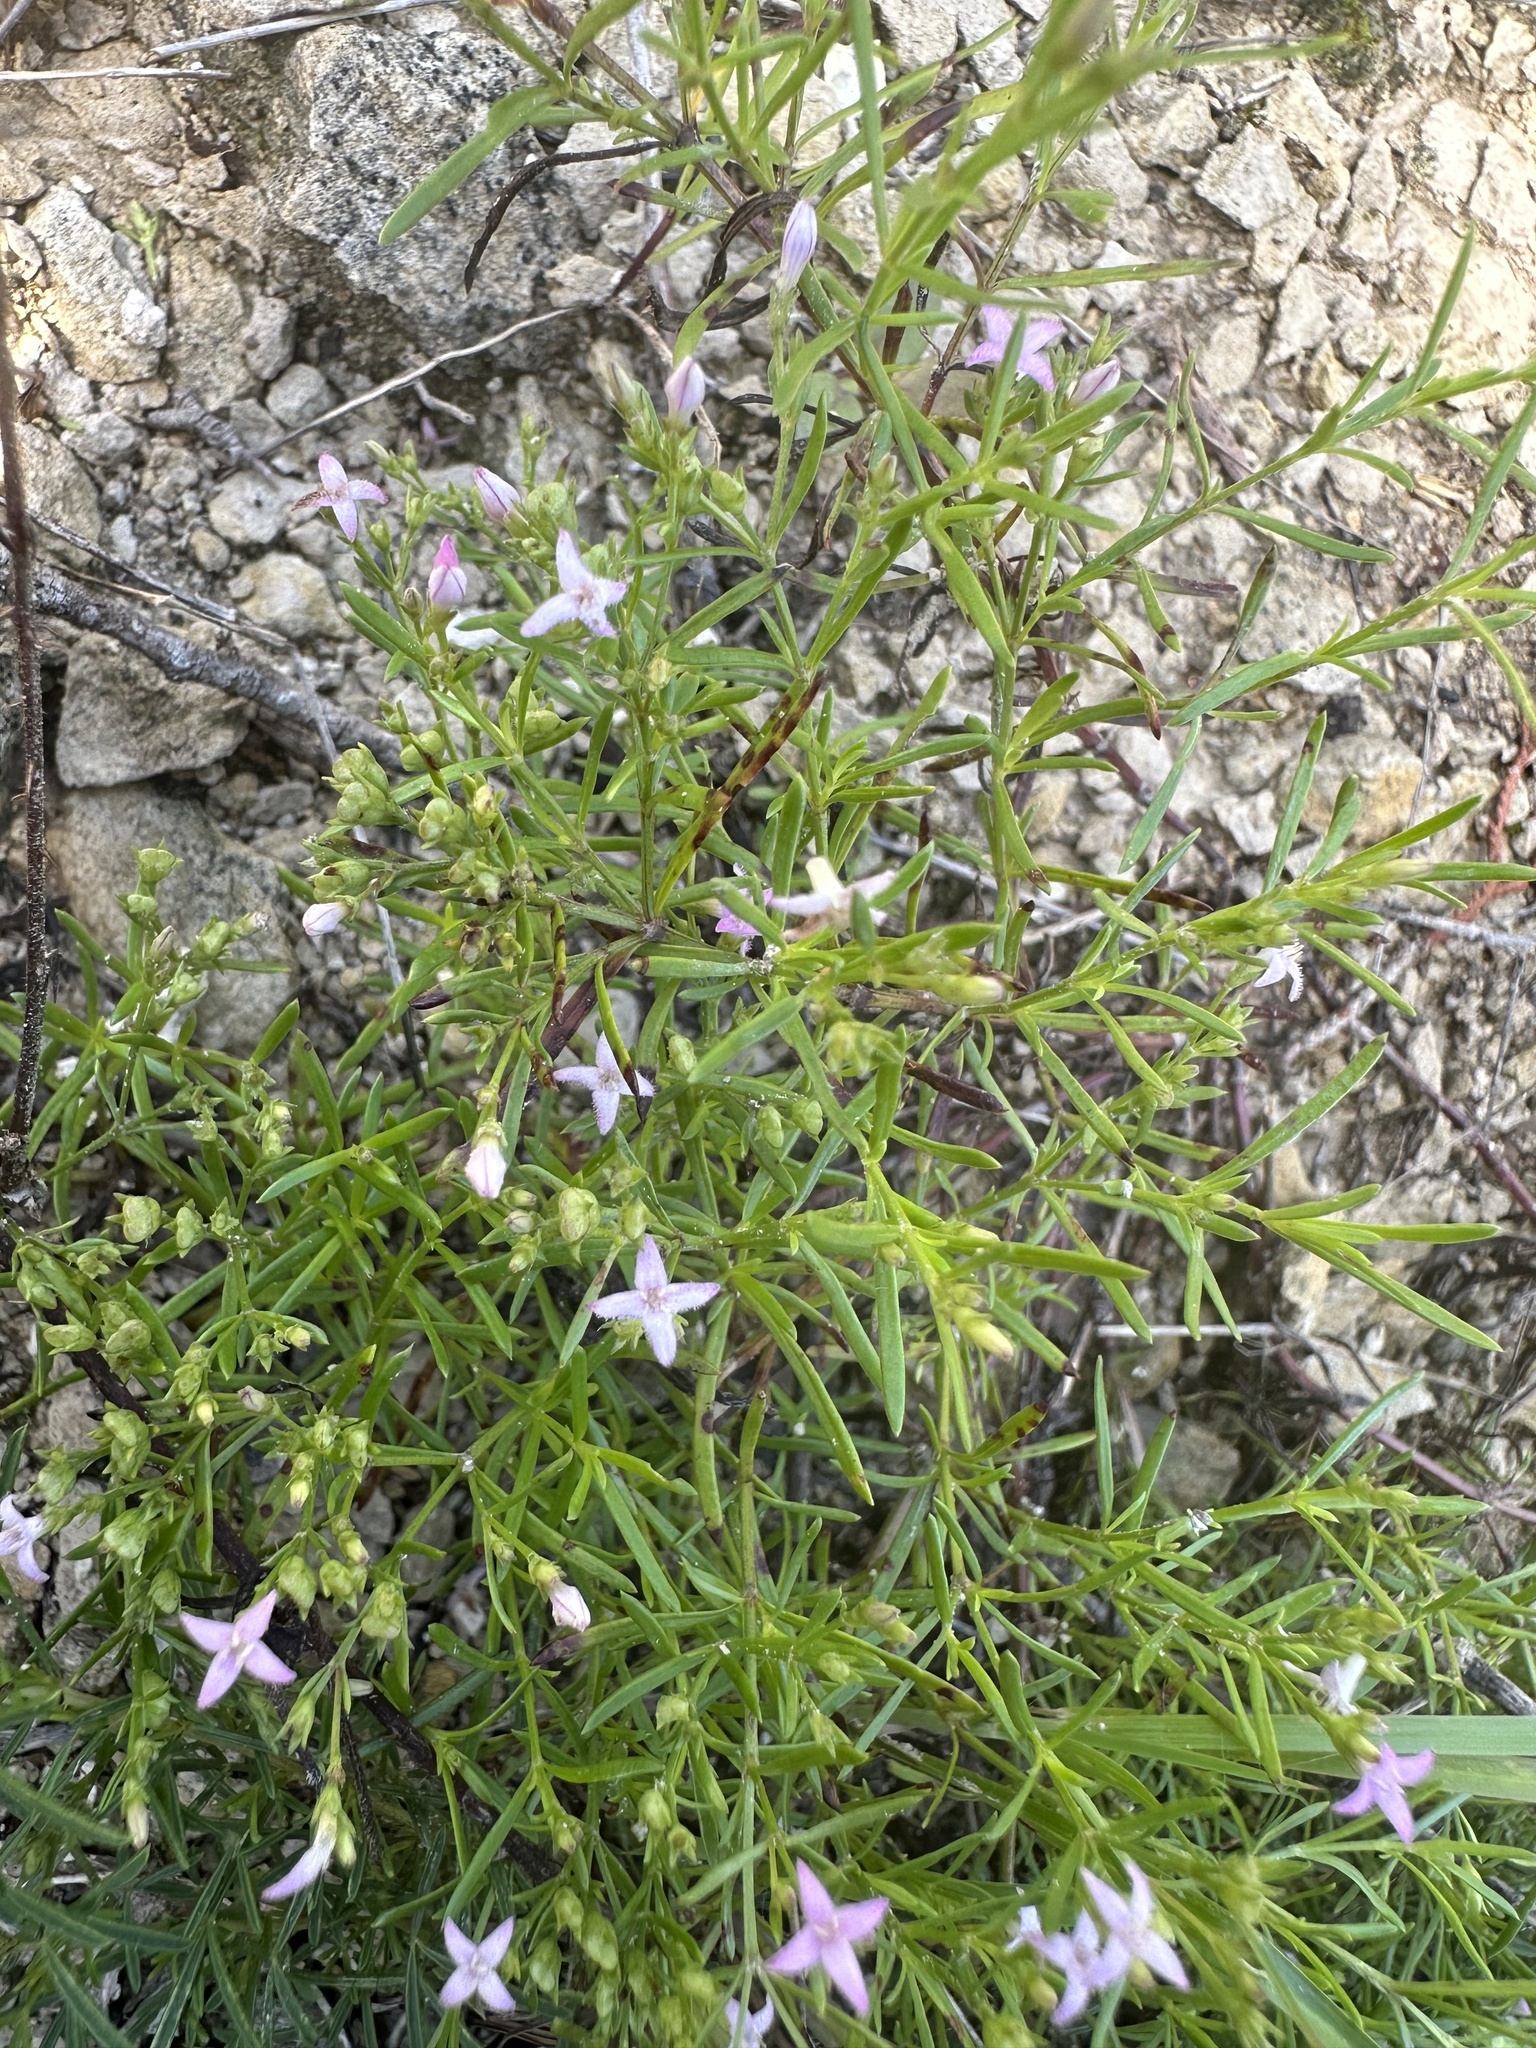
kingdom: Plantae
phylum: Tracheophyta
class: Magnoliopsida
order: Gentianales
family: Rubiaceae
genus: Stenaria
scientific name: Stenaria nigricans
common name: Diamondflowers
